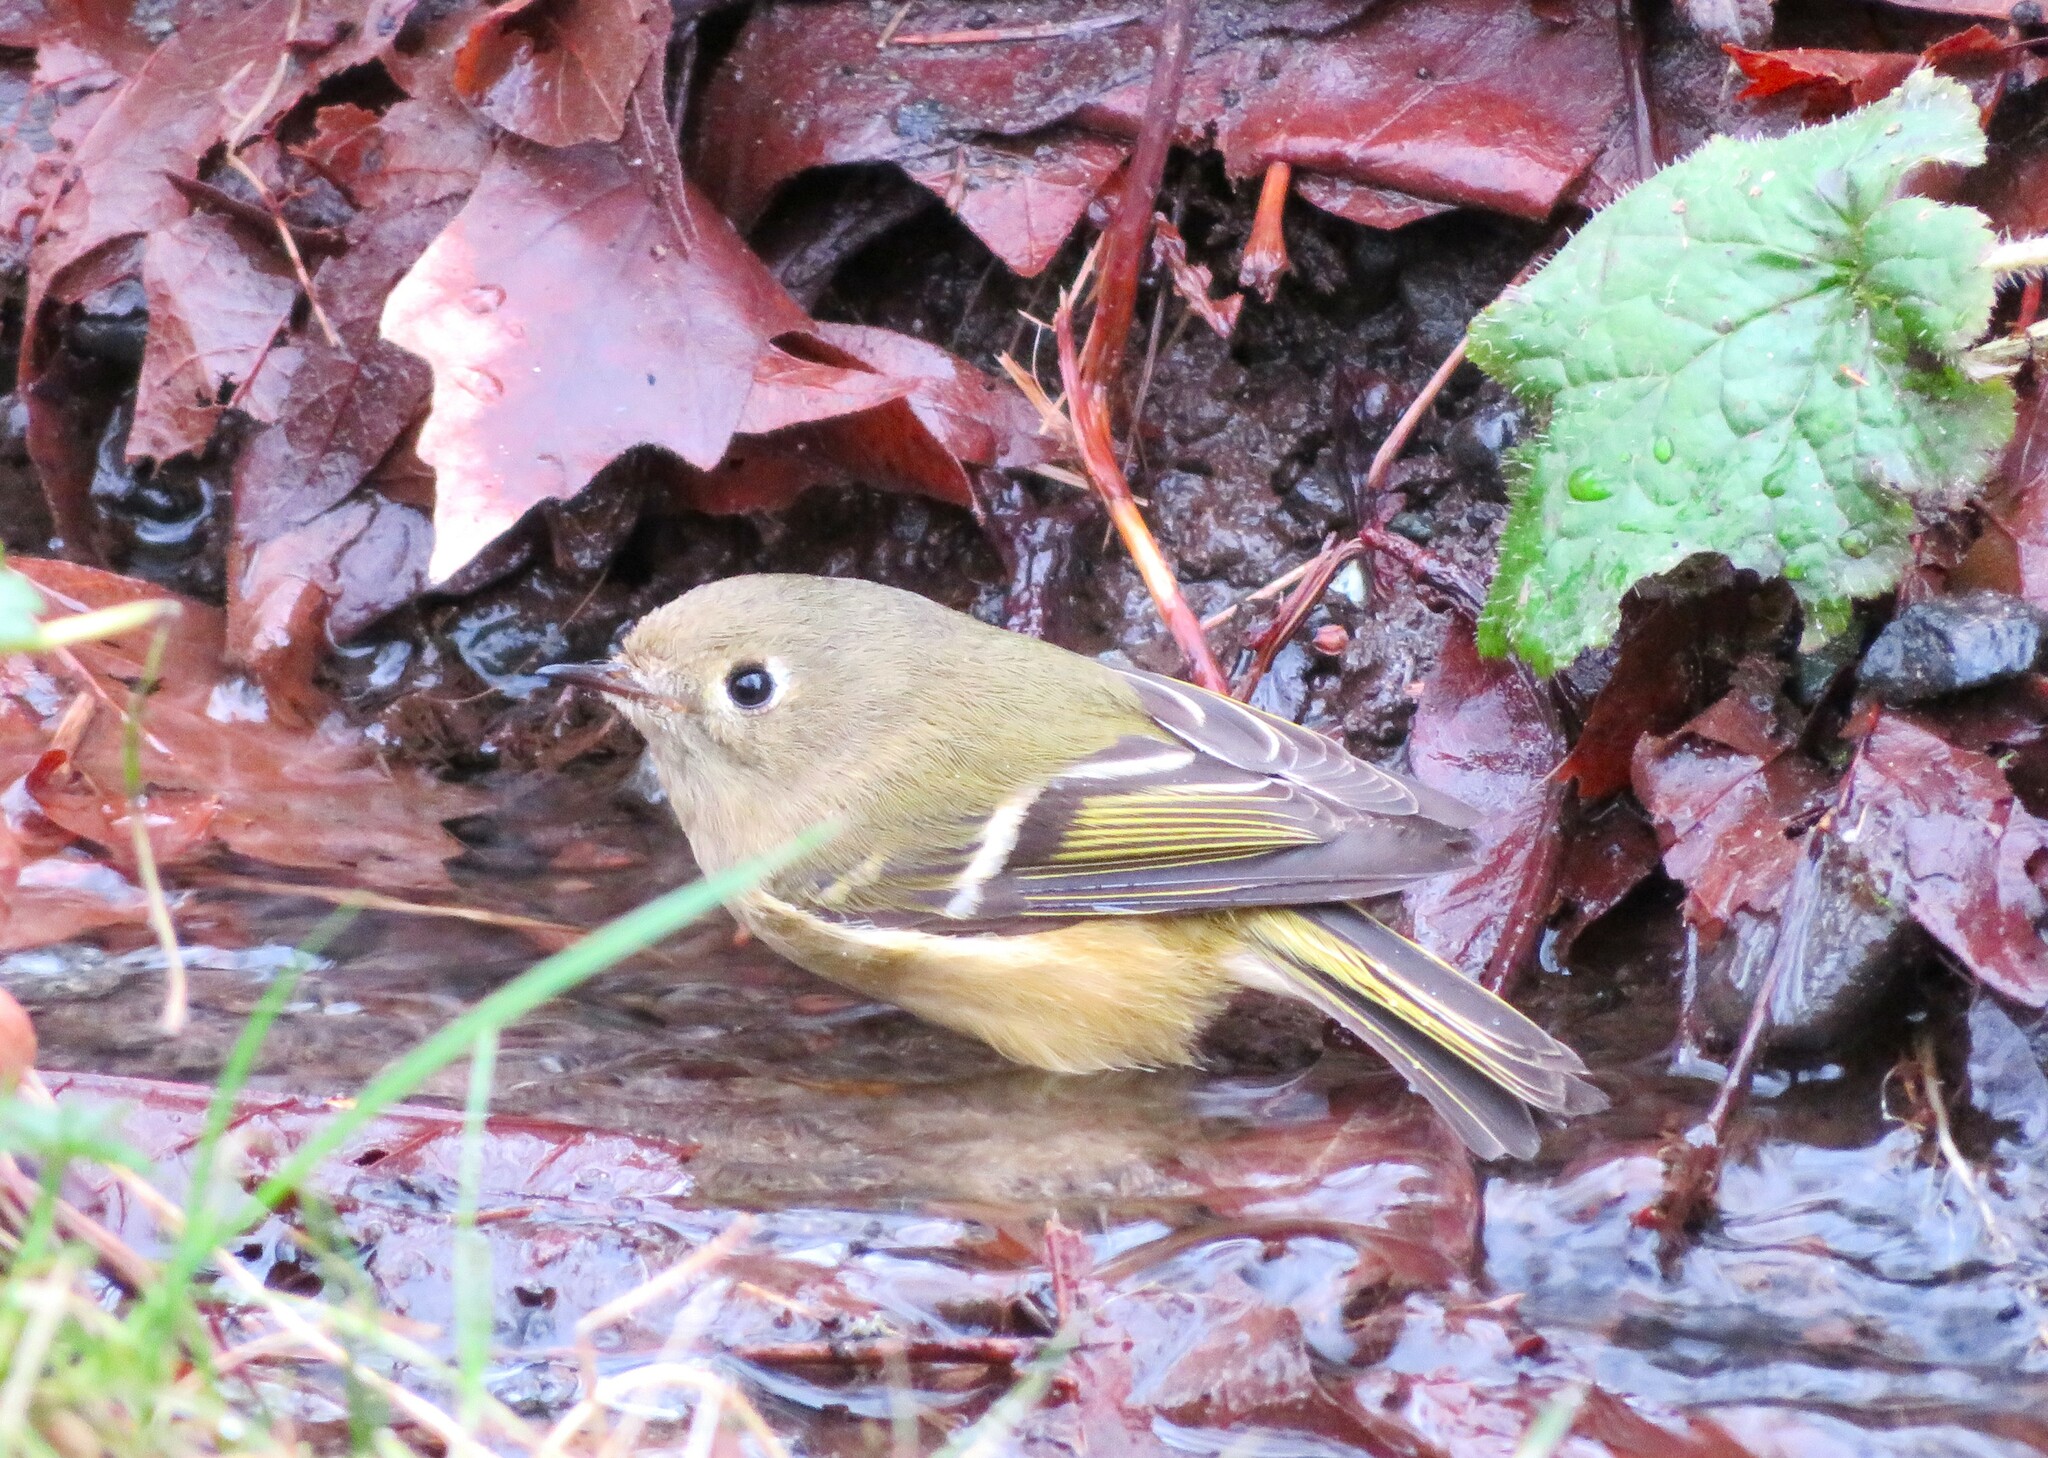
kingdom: Animalia
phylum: Chordata
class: Aves
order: Passeriformes
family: Regulidae
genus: Regulus
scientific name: Regulus calendula
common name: Ruby-crowned kinglet
